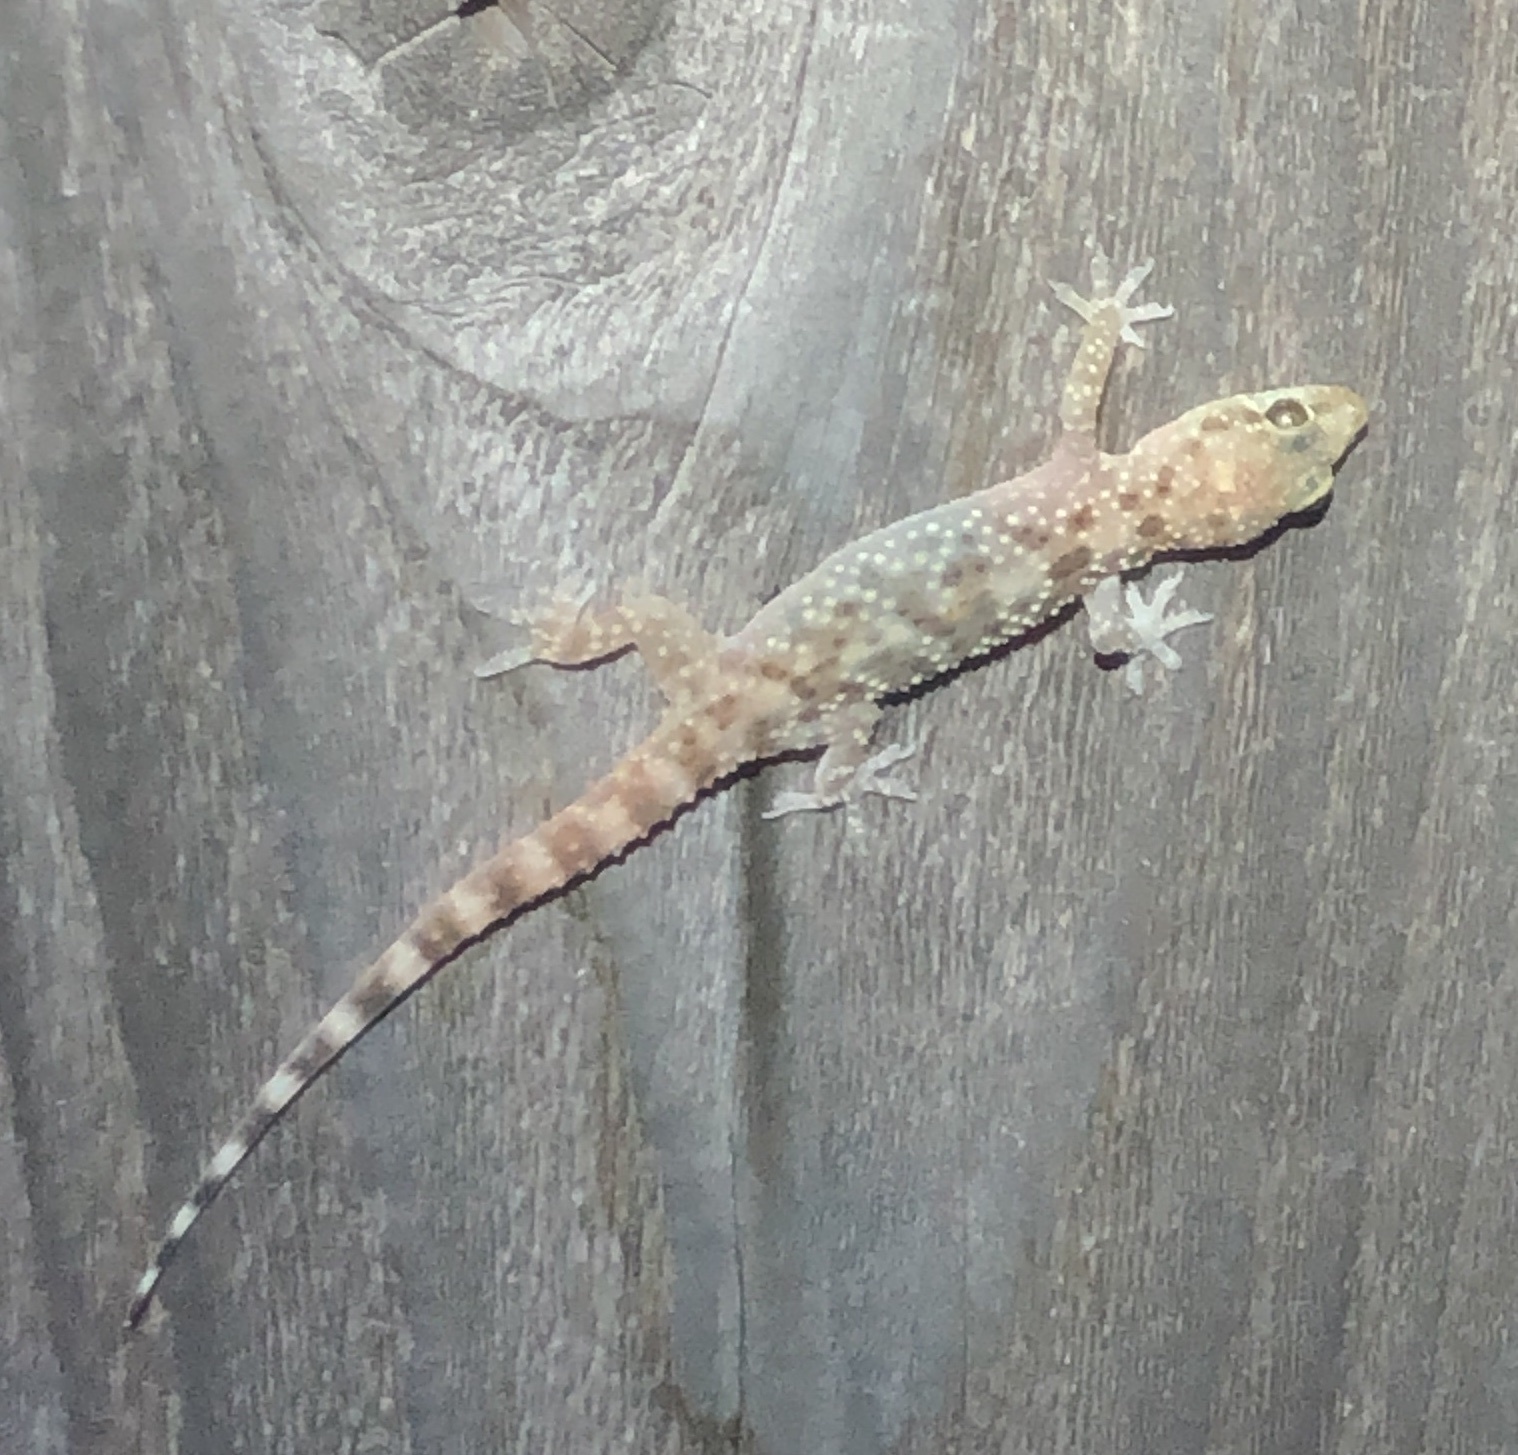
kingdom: Animalia
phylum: Chordata
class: Squamata
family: Gekkonidae
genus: Hemidactylus
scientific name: Hemidactylus turcicus
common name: Turkish gecko
